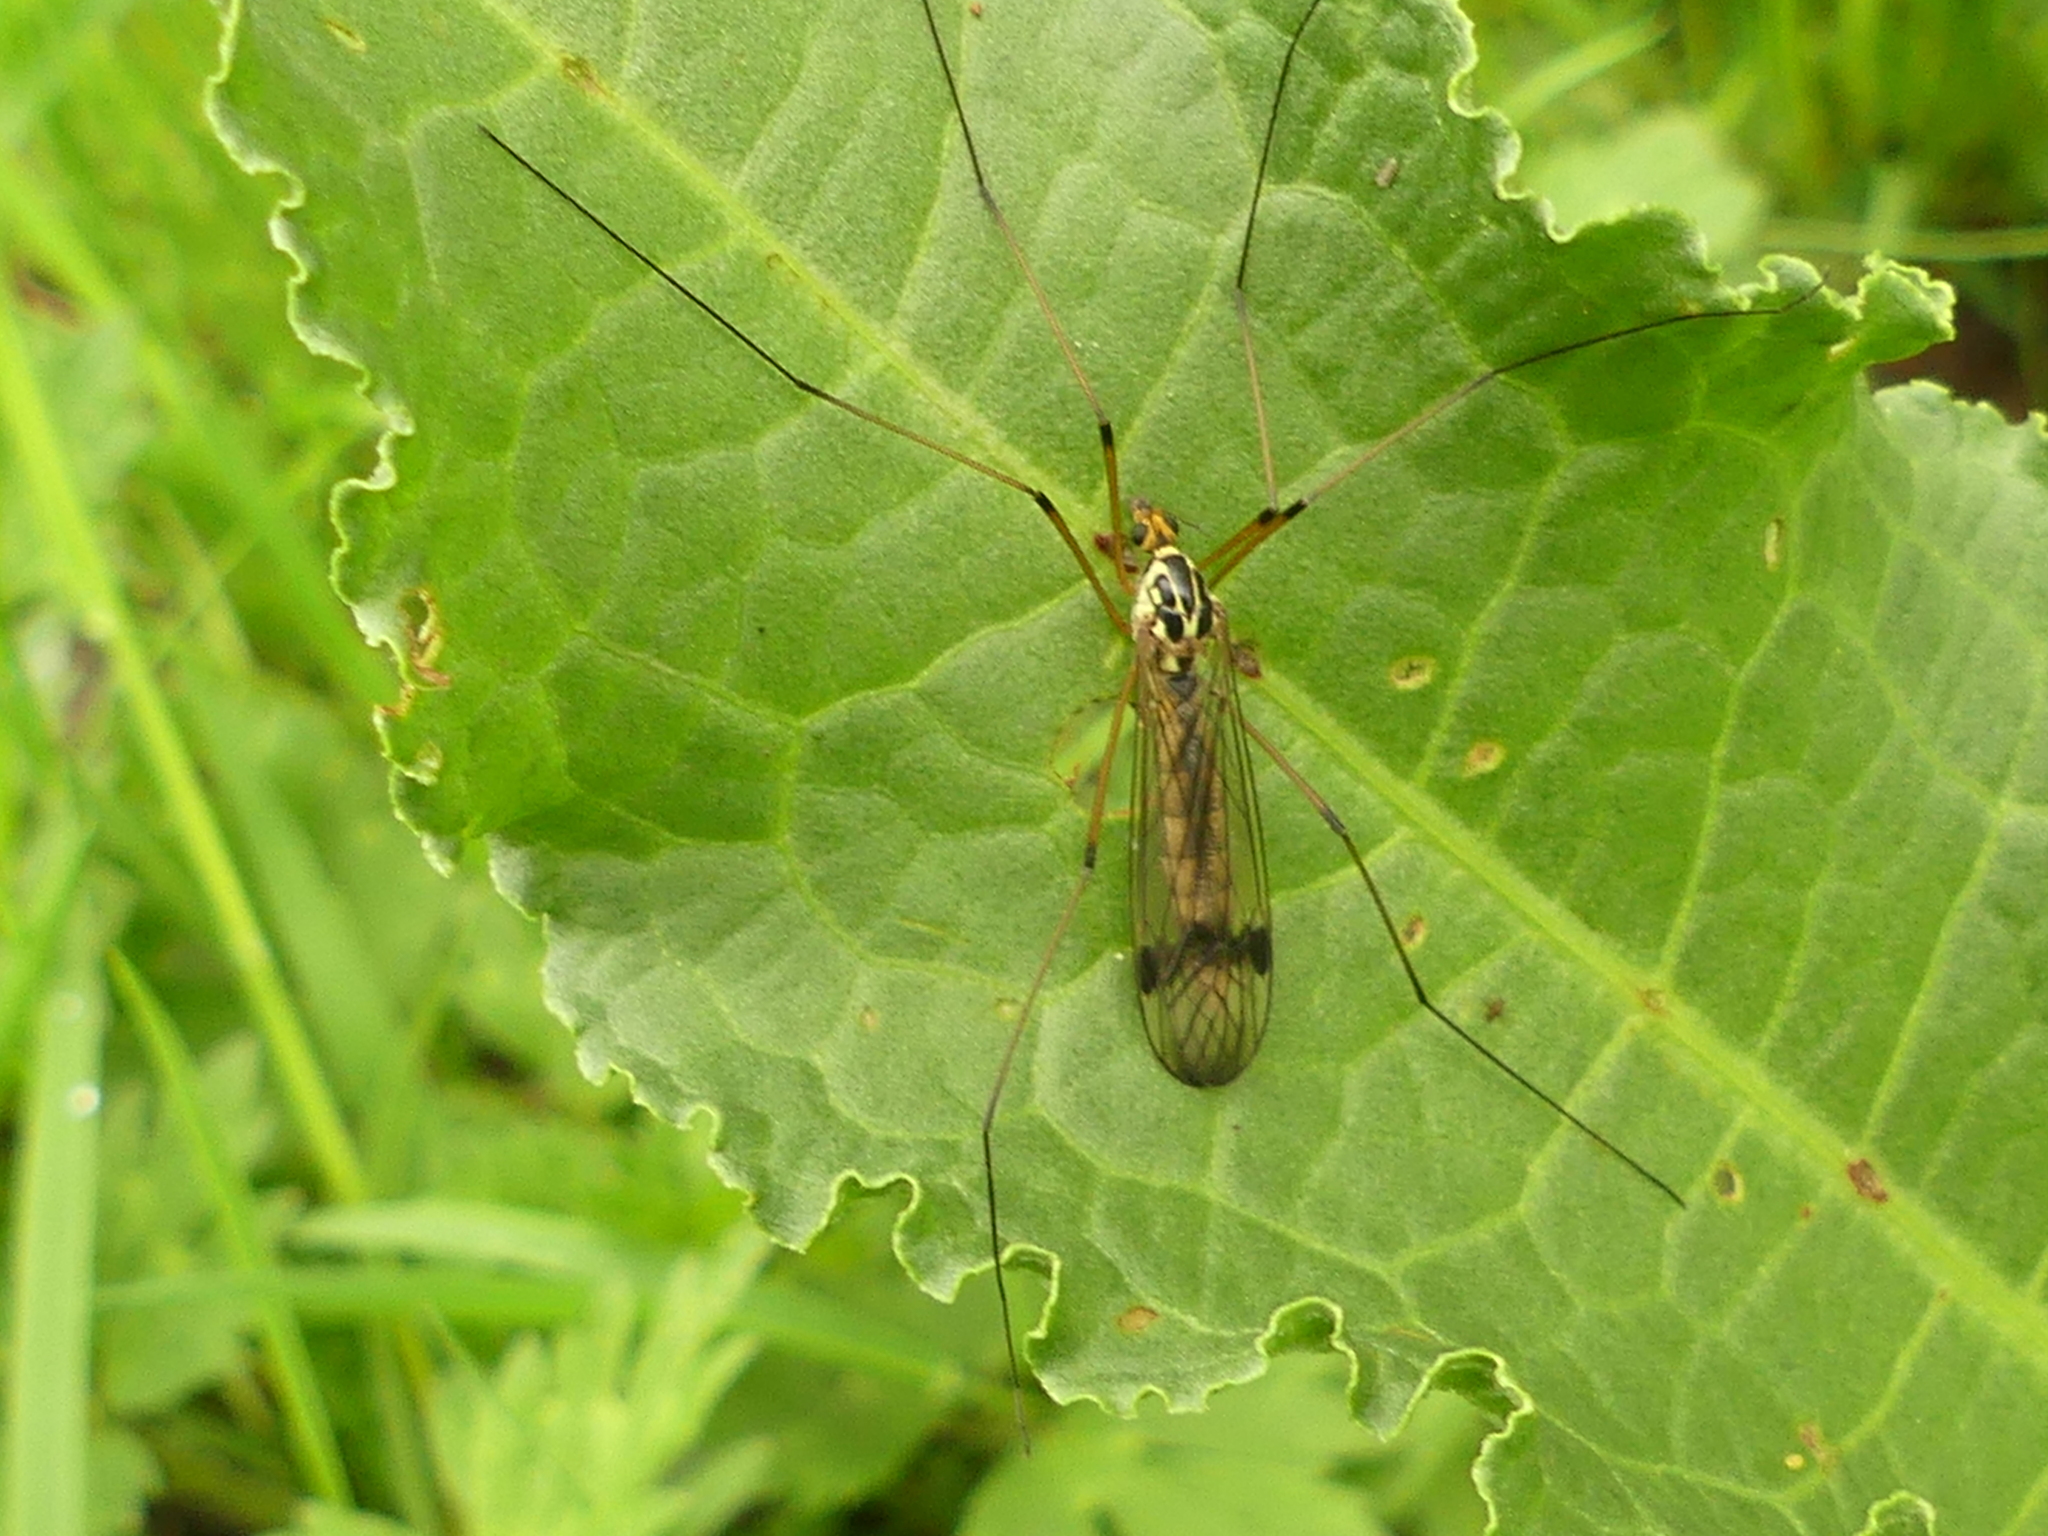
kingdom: Animalia
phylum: Arthropoda
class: Insecta
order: Diptera
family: Tipulidae
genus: Nephrotoma
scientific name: Nephrotoma quadrifaria
